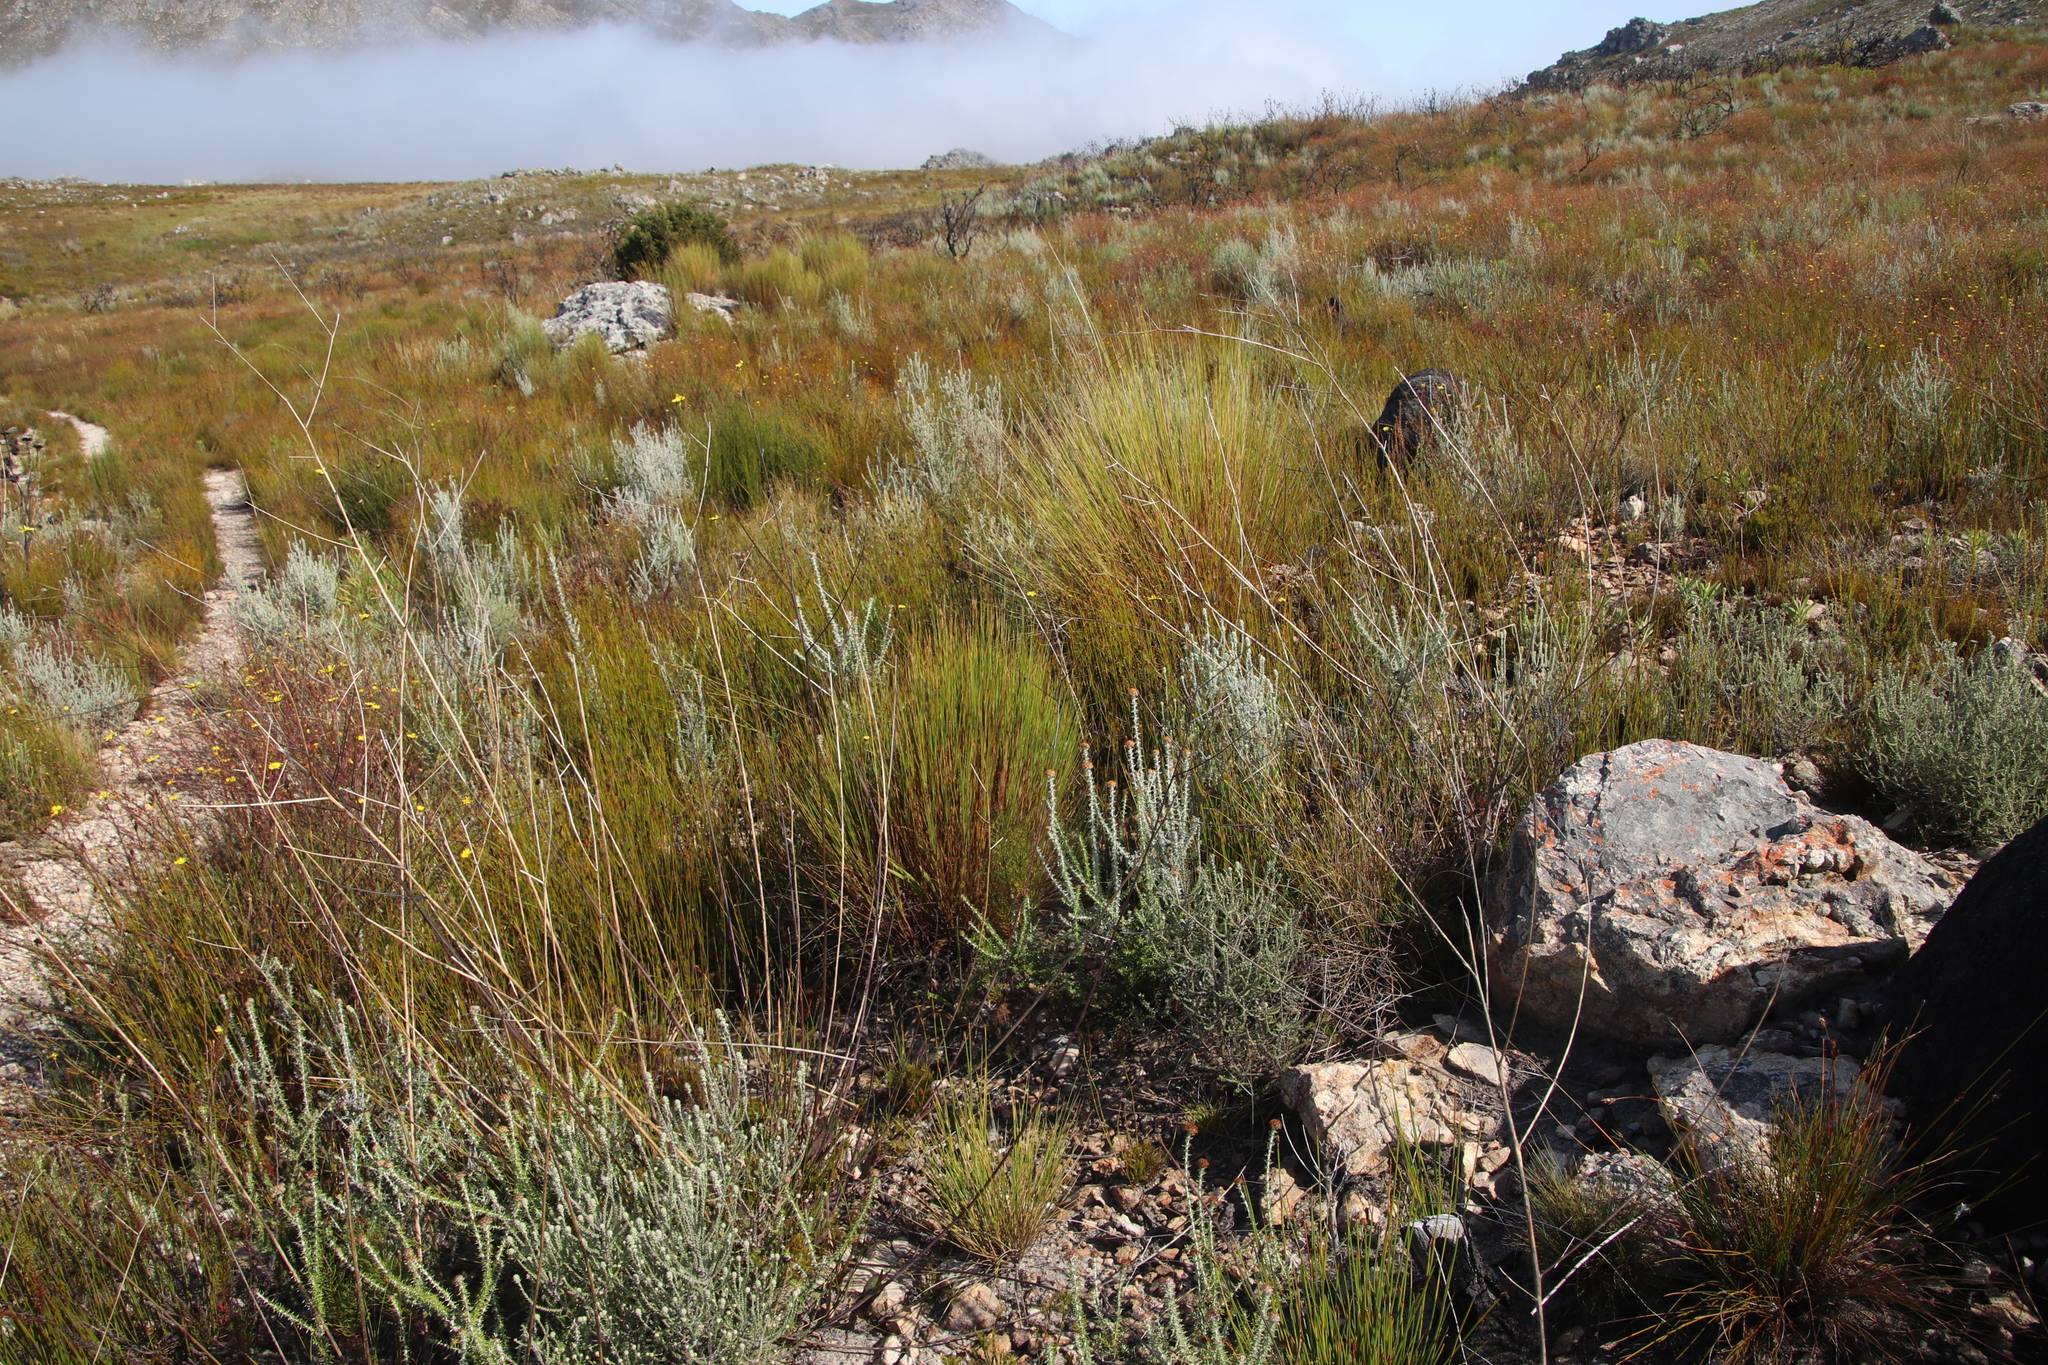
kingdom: Plantae
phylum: Tracheophyta
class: Magnoliopsida
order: Asterales
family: Asteraceae
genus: Metalasia
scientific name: Metalasia densa
